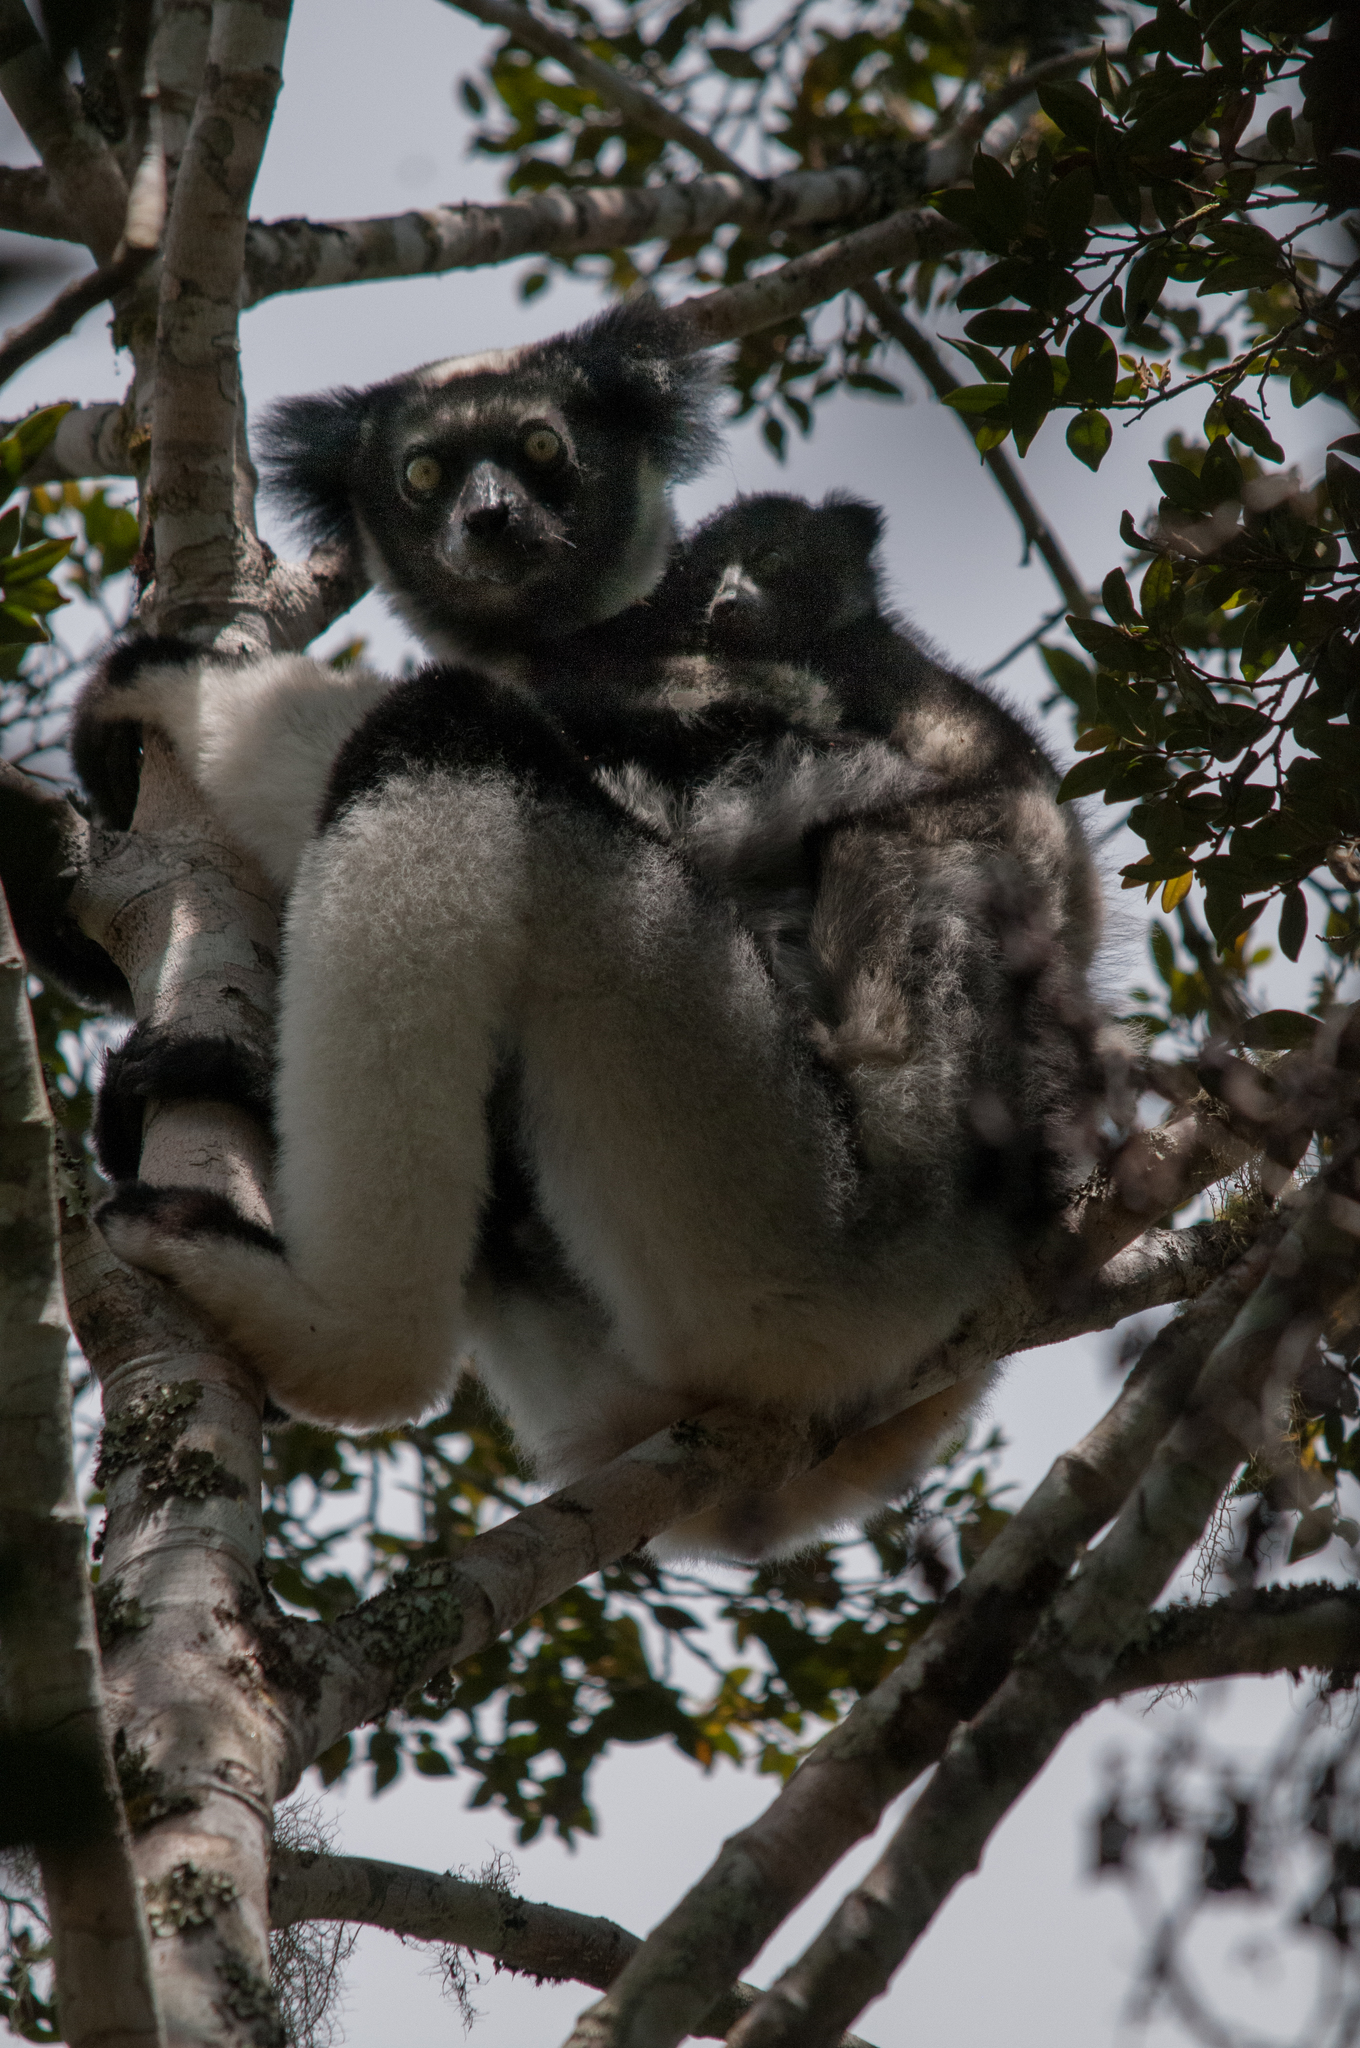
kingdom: Animalia
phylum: Chordata
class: Mammalia
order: Primates
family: Indriidae
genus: Indri
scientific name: Indri indri
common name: Indri
